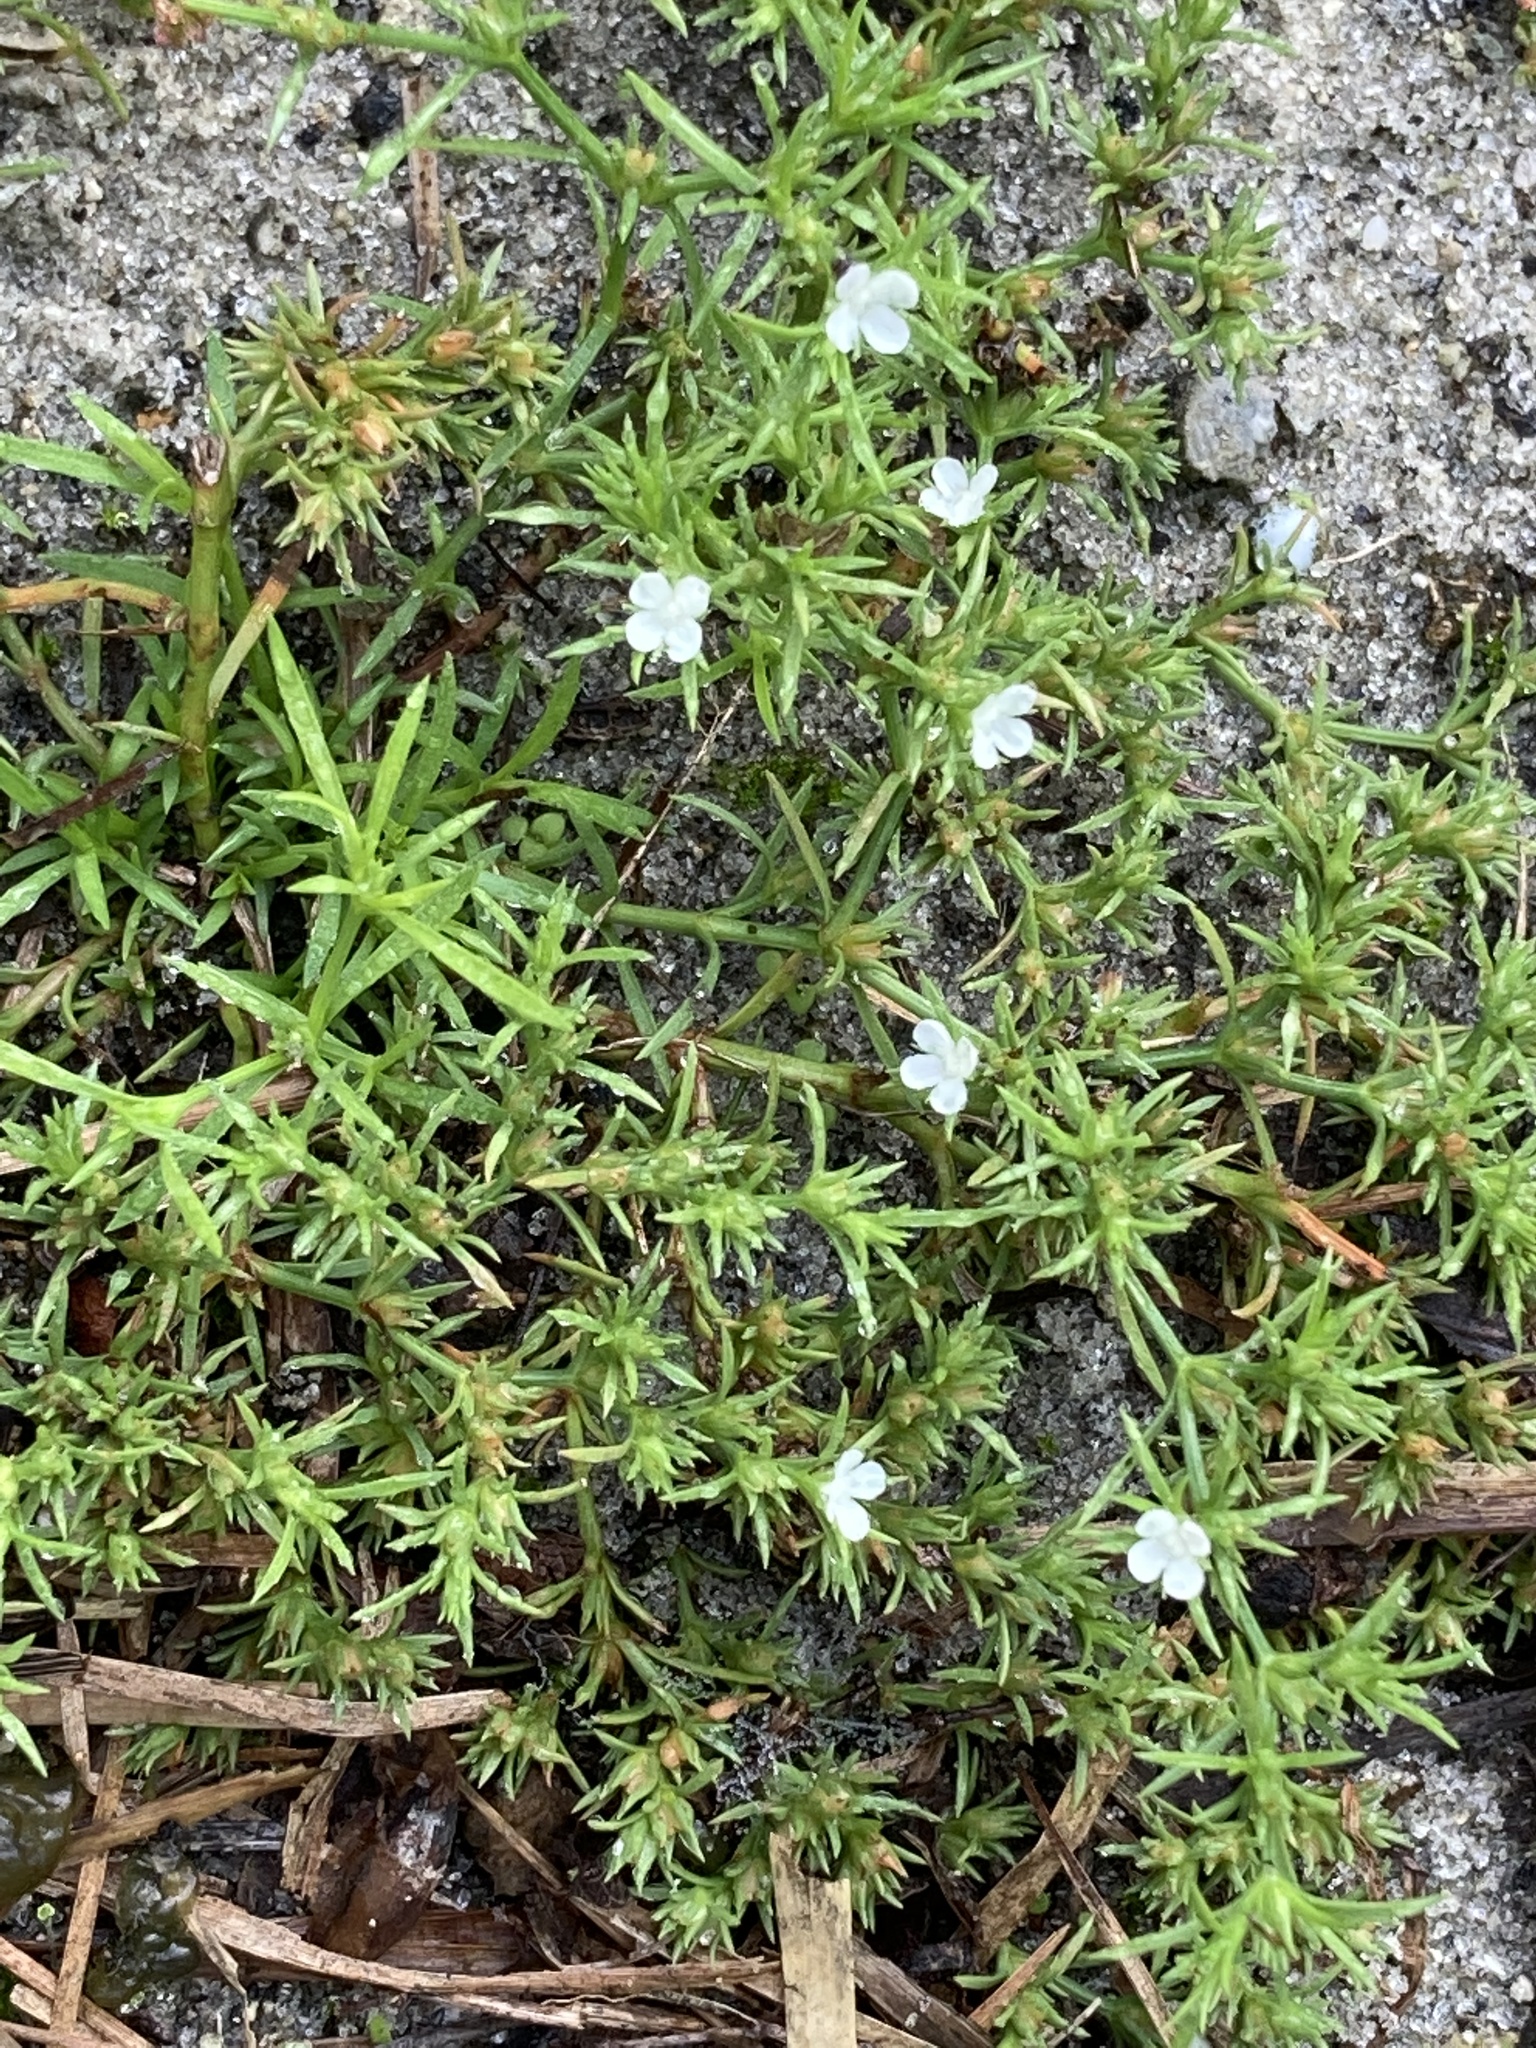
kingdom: Plantae
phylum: Tracheophyta
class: Magnoliopsida
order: Lamiales
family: Tetrachondraceae
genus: Polypremum
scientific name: Polypremum procumbens
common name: Juniper-leaf
